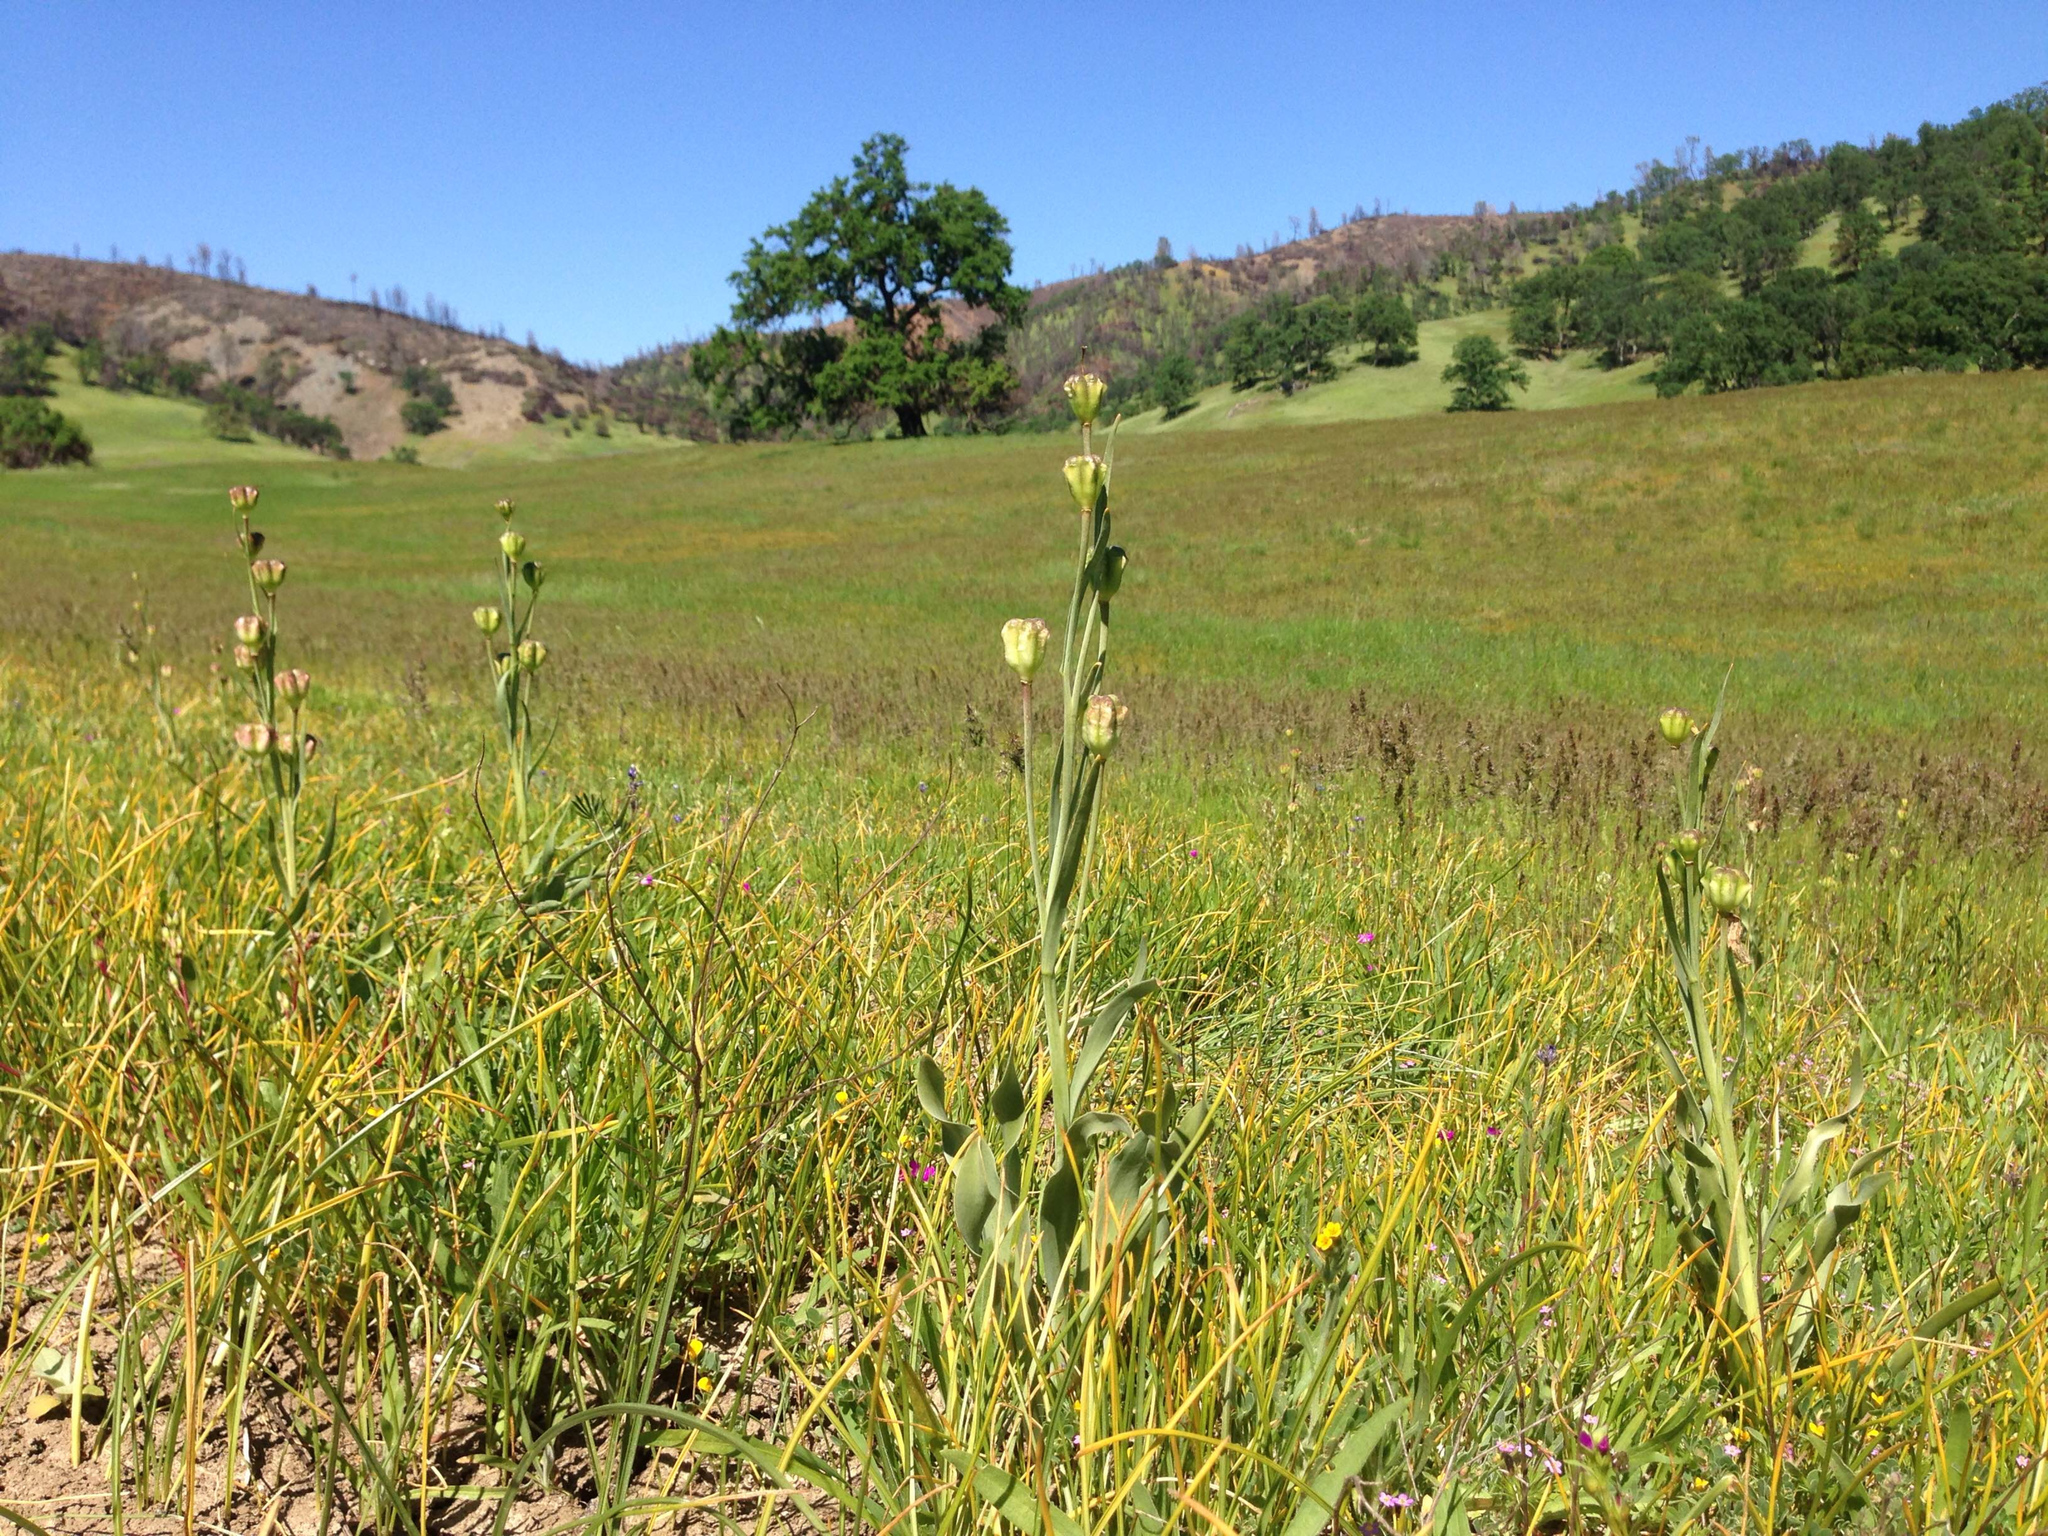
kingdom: Plantae
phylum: Tracheophyta
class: Liliopsida
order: Liliales
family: Liliaceae
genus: Fritillaria
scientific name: Fritillaria pluriflora
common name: Adobe-lily
